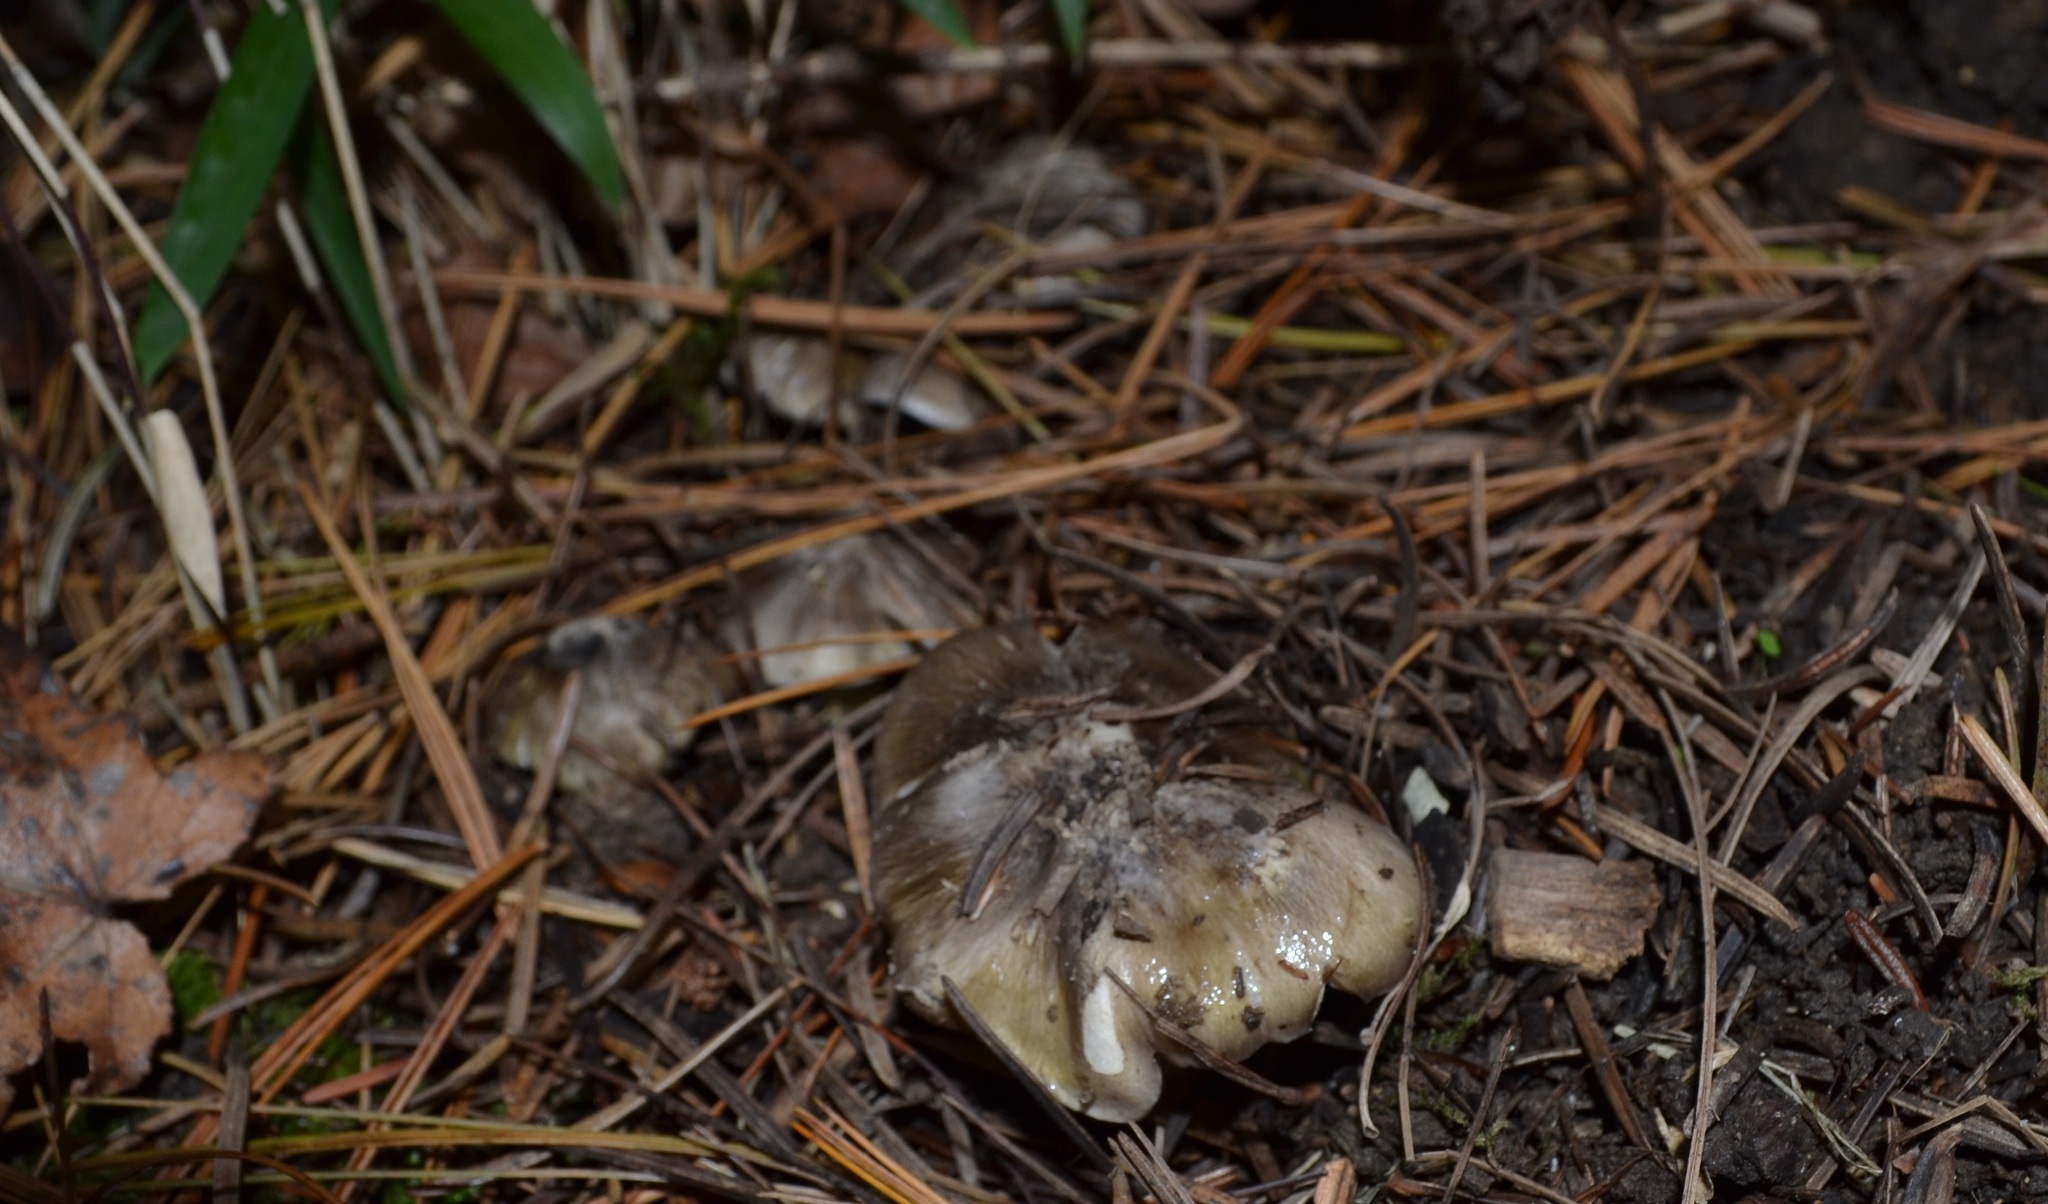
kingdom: Fungi
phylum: Basidiomycota
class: Agaricomycetes
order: Agaricales
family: Tricholomataceae
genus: Tricholoma
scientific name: Tricholoma portentosum
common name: Coalman
